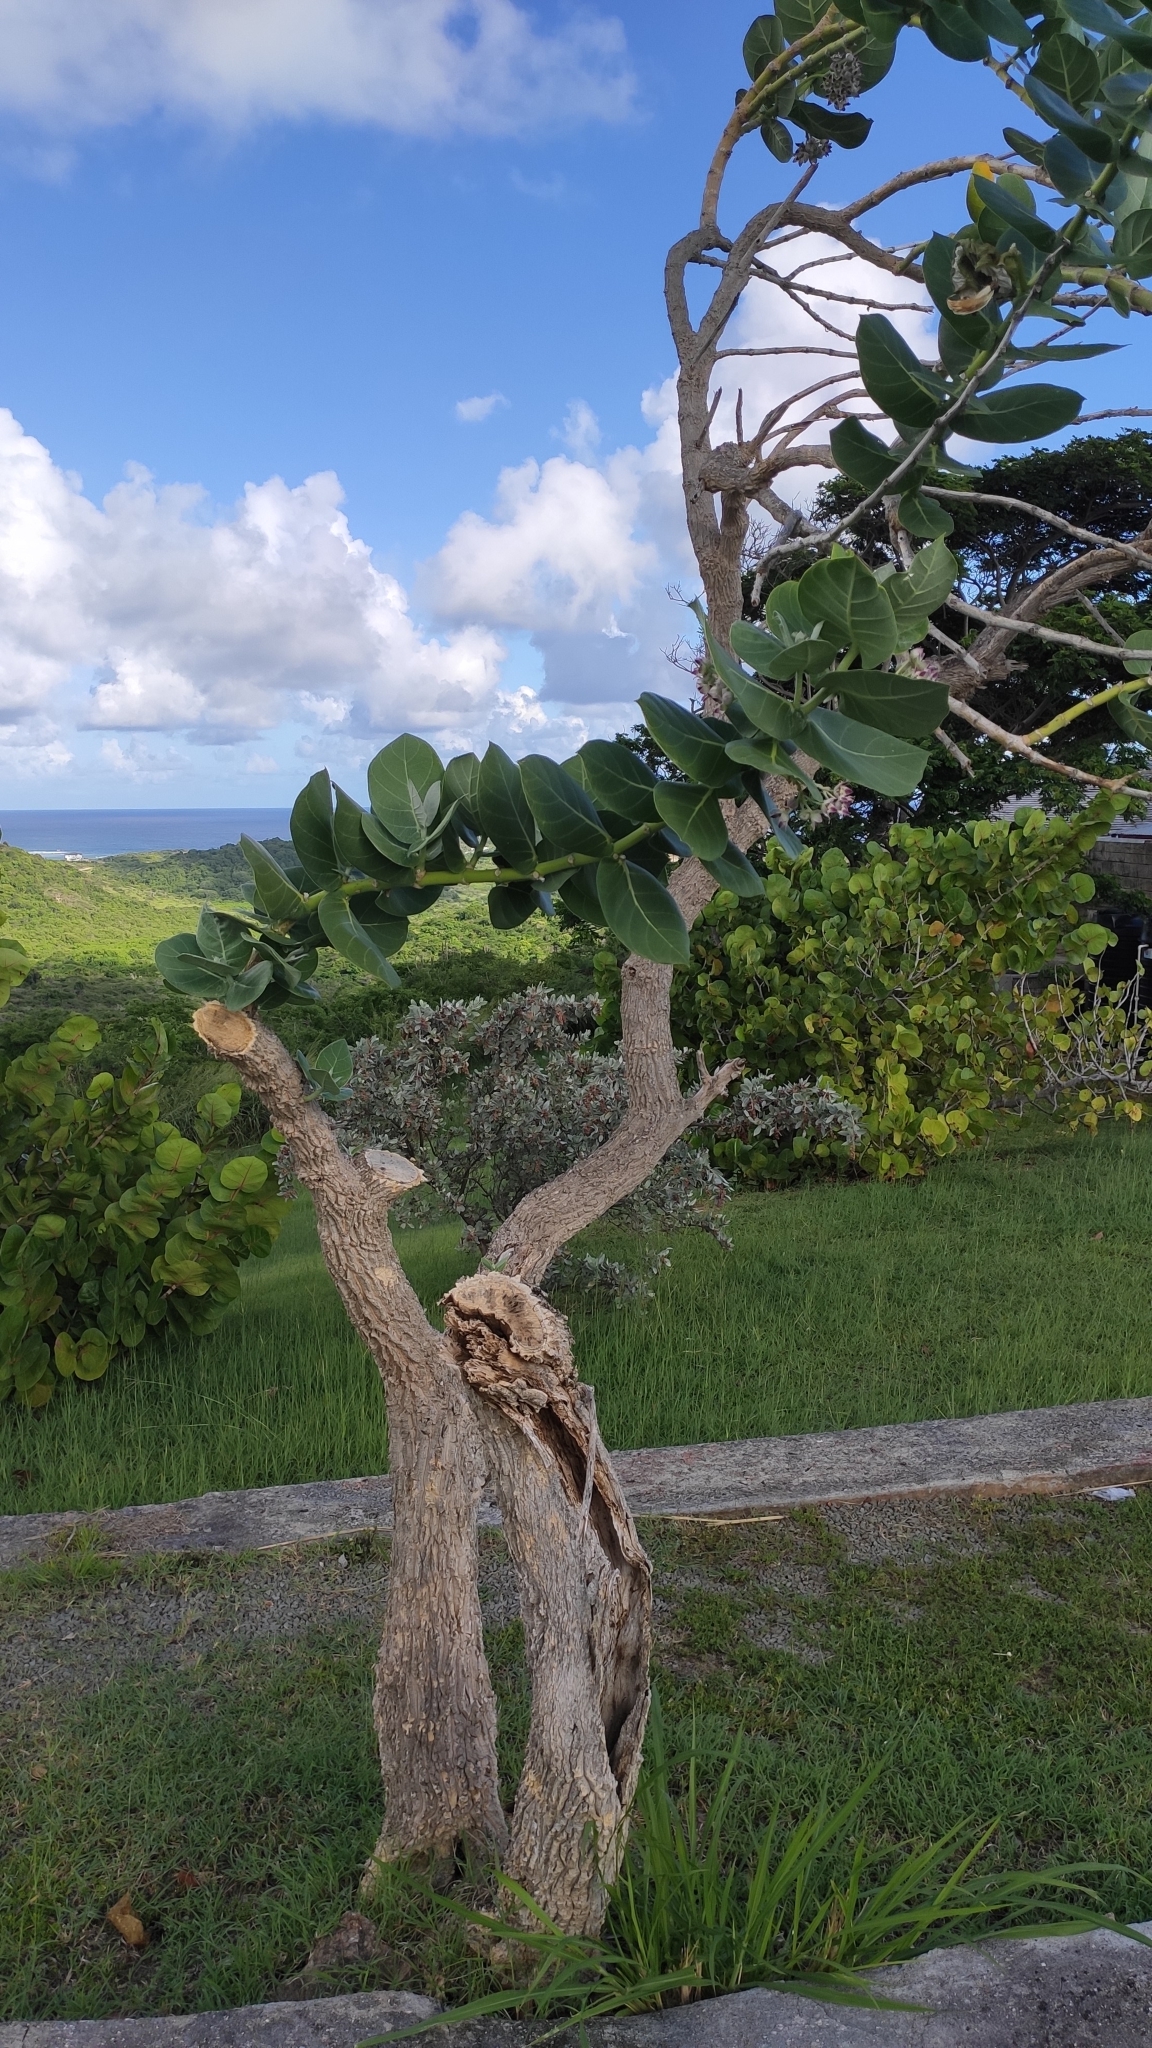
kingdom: Plantae
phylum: Tracheophyta
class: Magnoliopsida
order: Gentianales
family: Apocynaceae
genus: Calotropis
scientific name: Calotropis procera
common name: Roostertree
